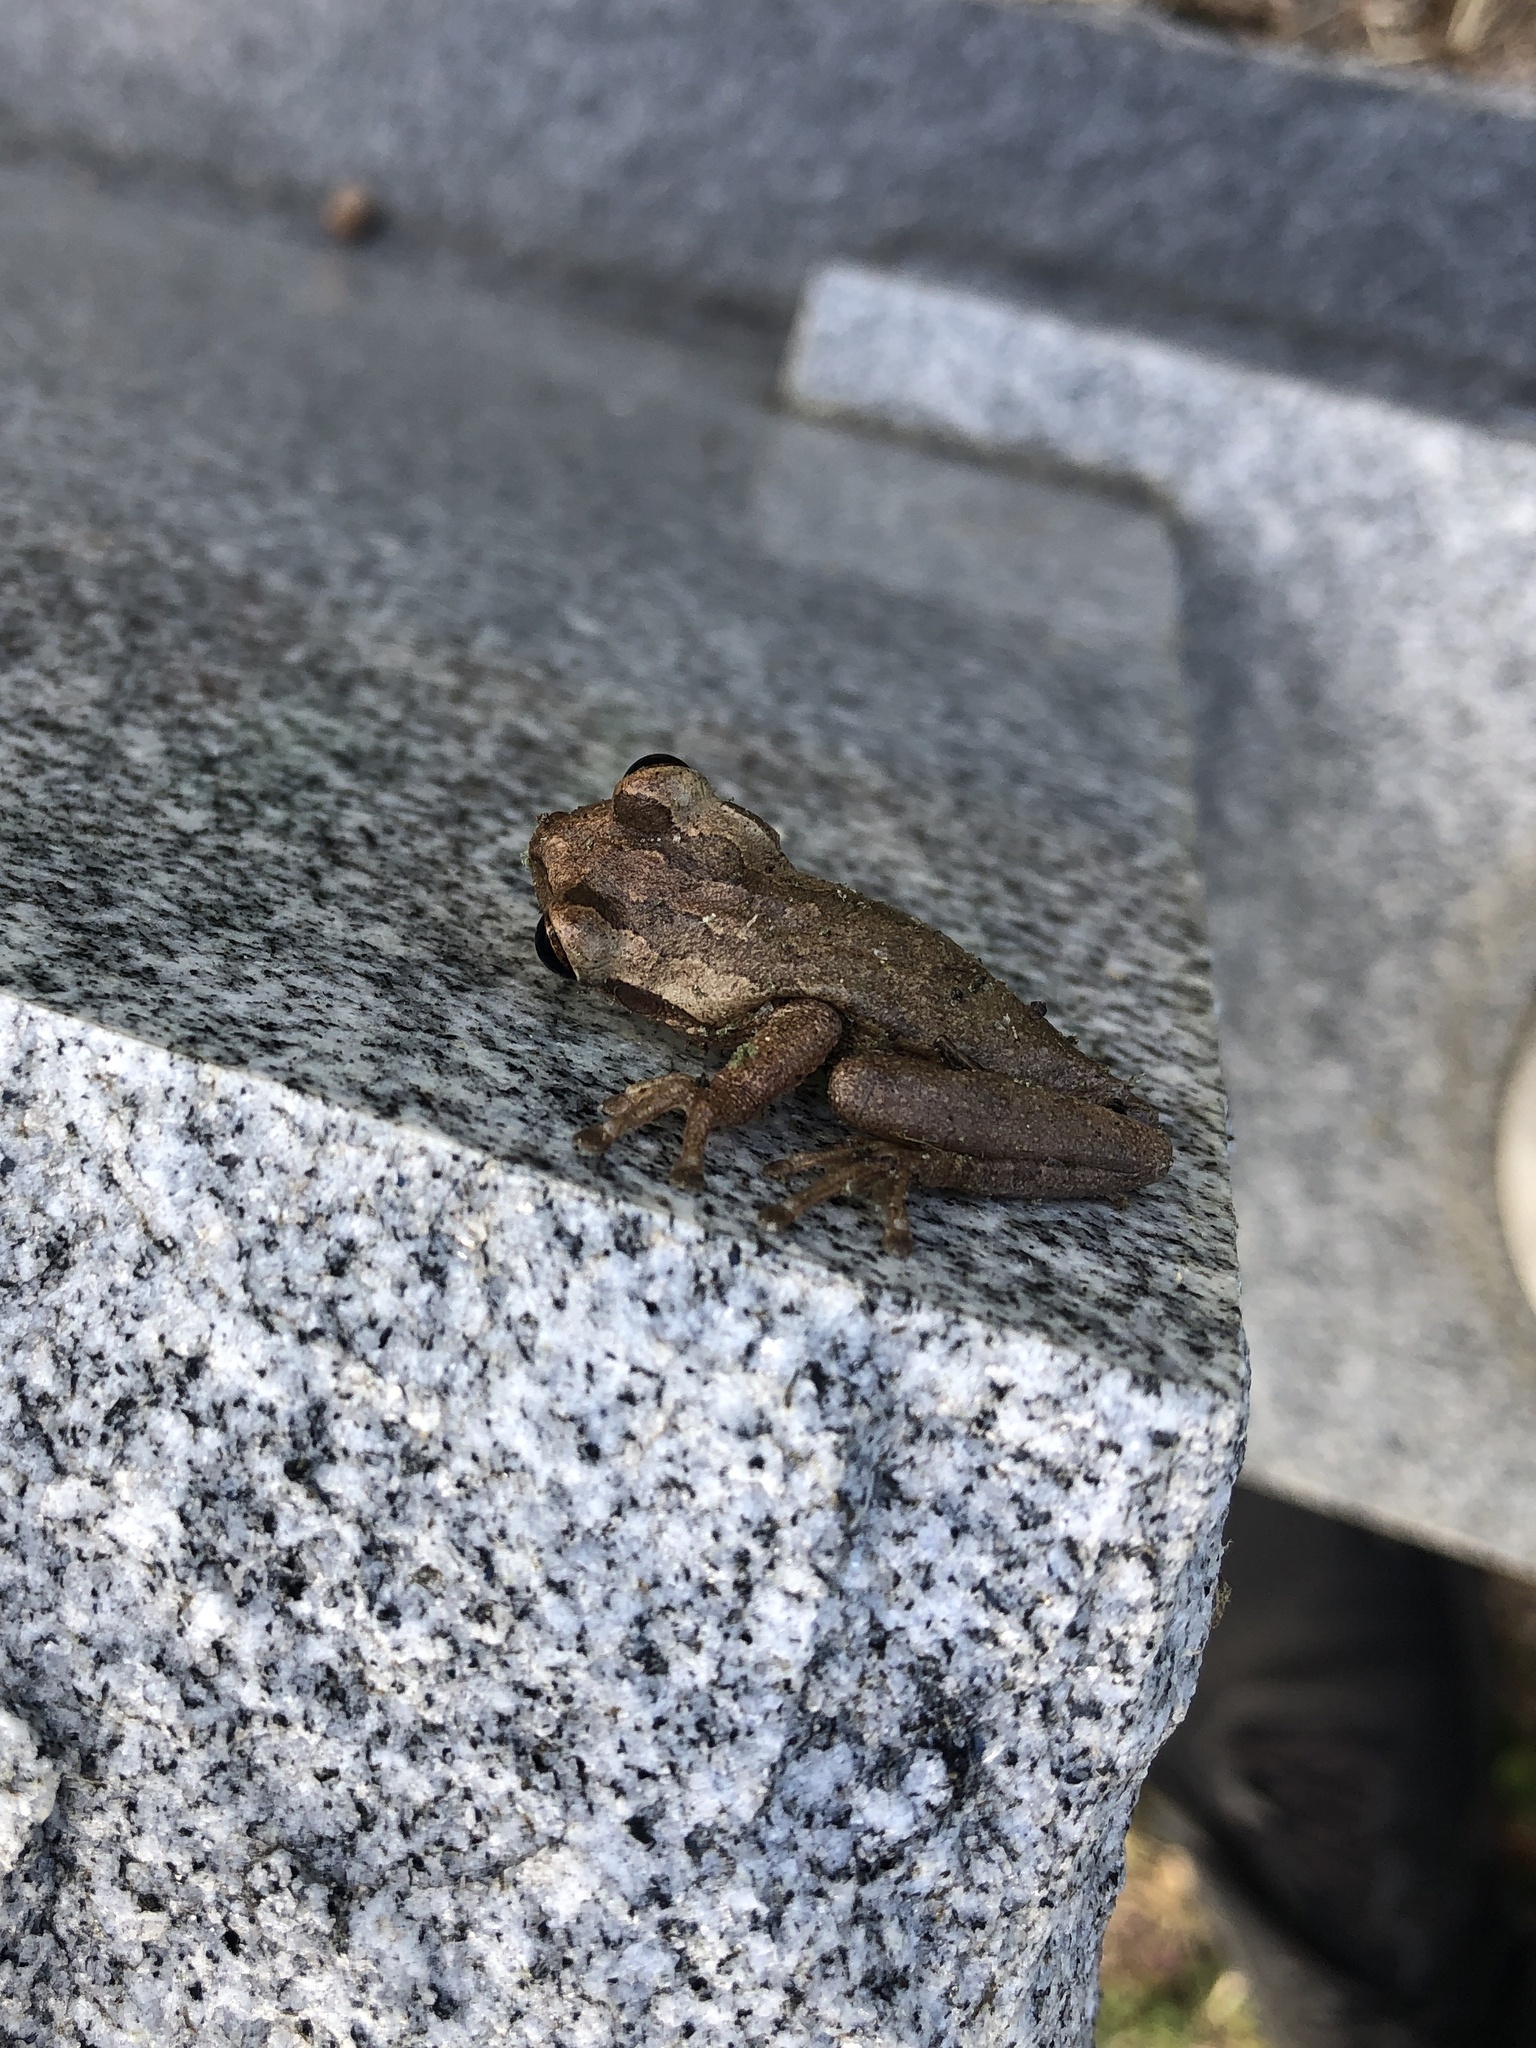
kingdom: Animalia
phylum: Chordata
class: Amphibia
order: Anura
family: Hylidae
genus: Osteopilus
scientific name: Osteopilus septentrionalis
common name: Cuban treefrog
